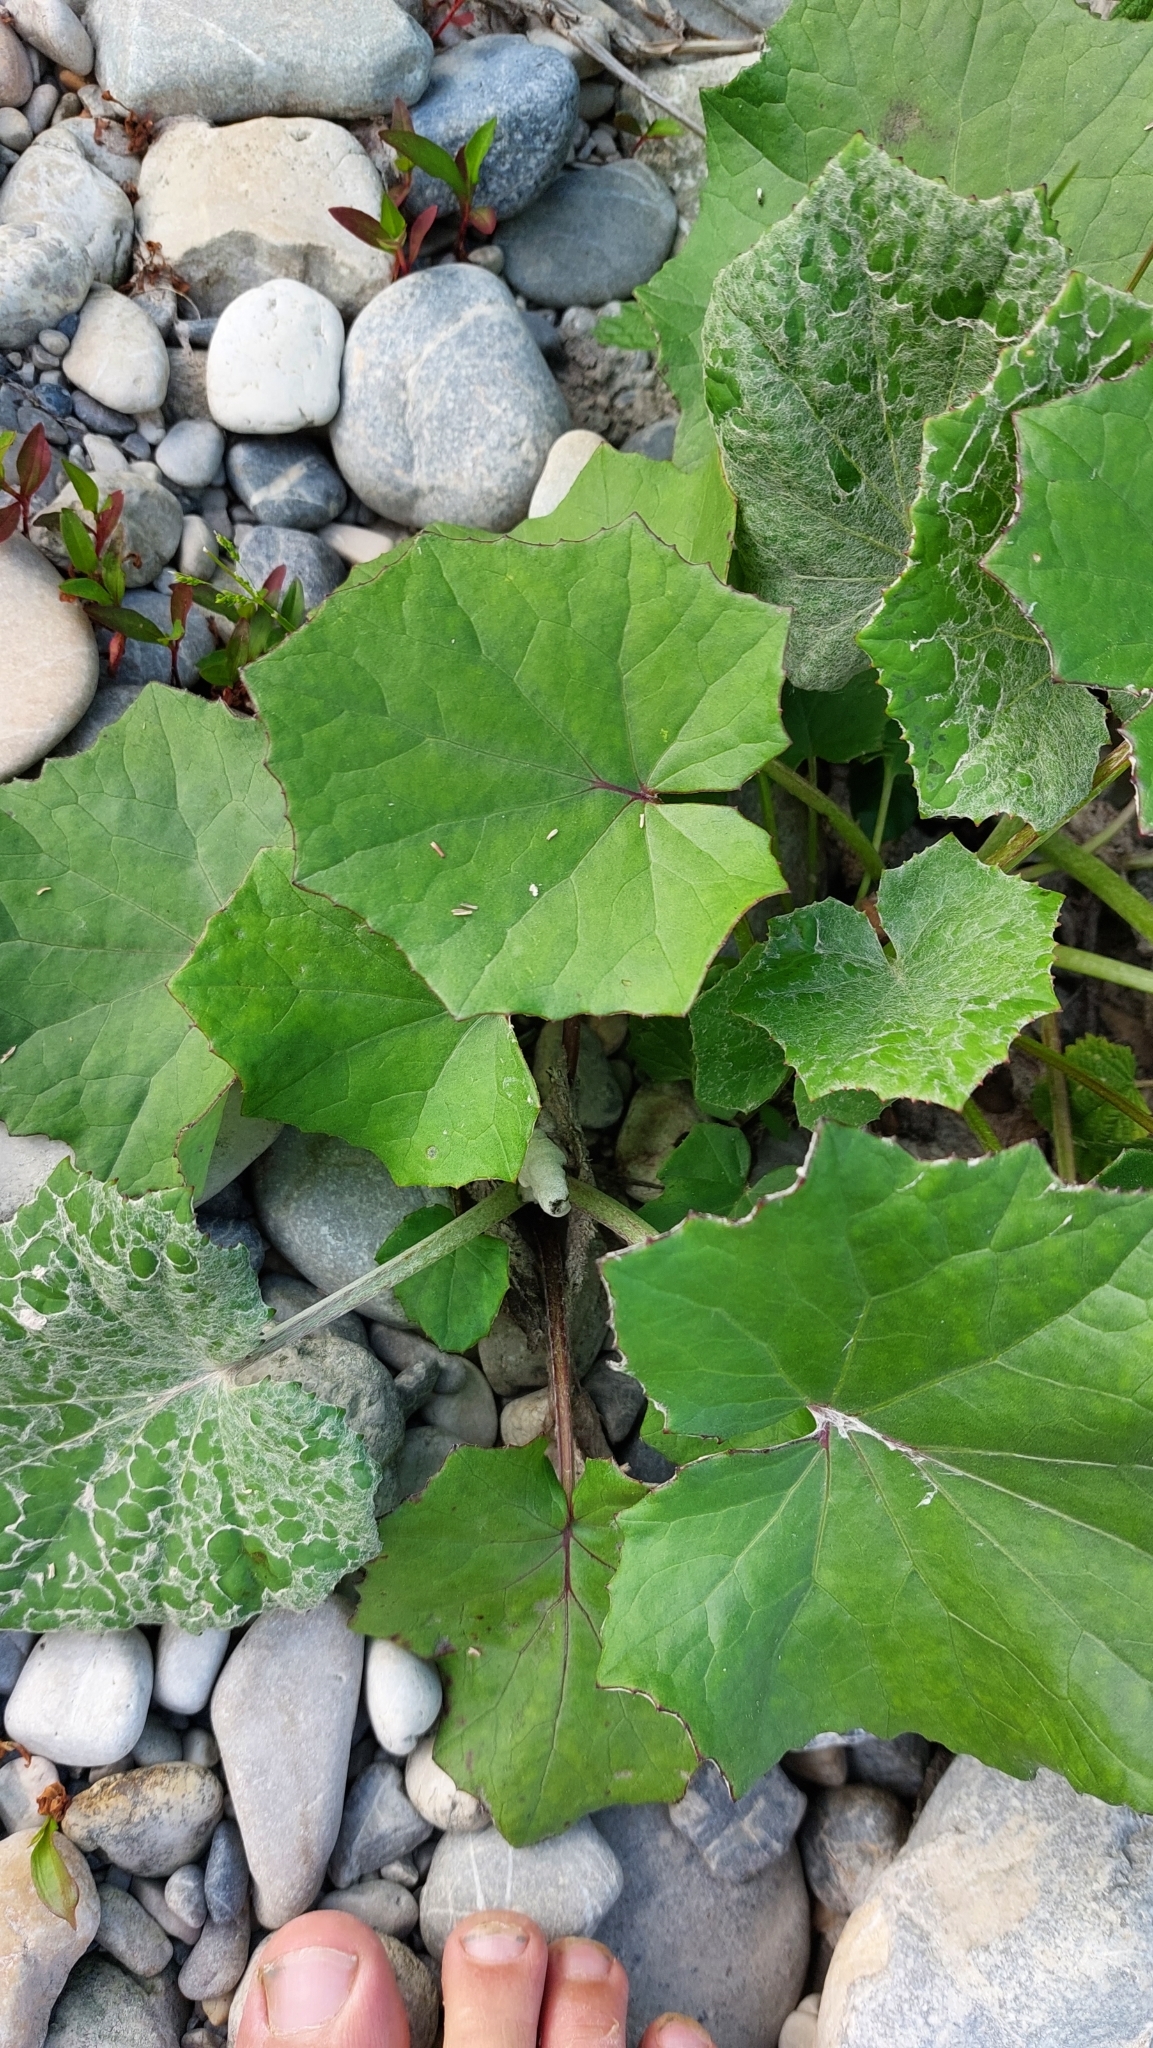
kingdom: Plantae
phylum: Tracheophyta
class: Magnoliopsida
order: Asterales
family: Asteraceae
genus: Tussilago
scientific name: Tussilago farfara
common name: Coltsfoot
